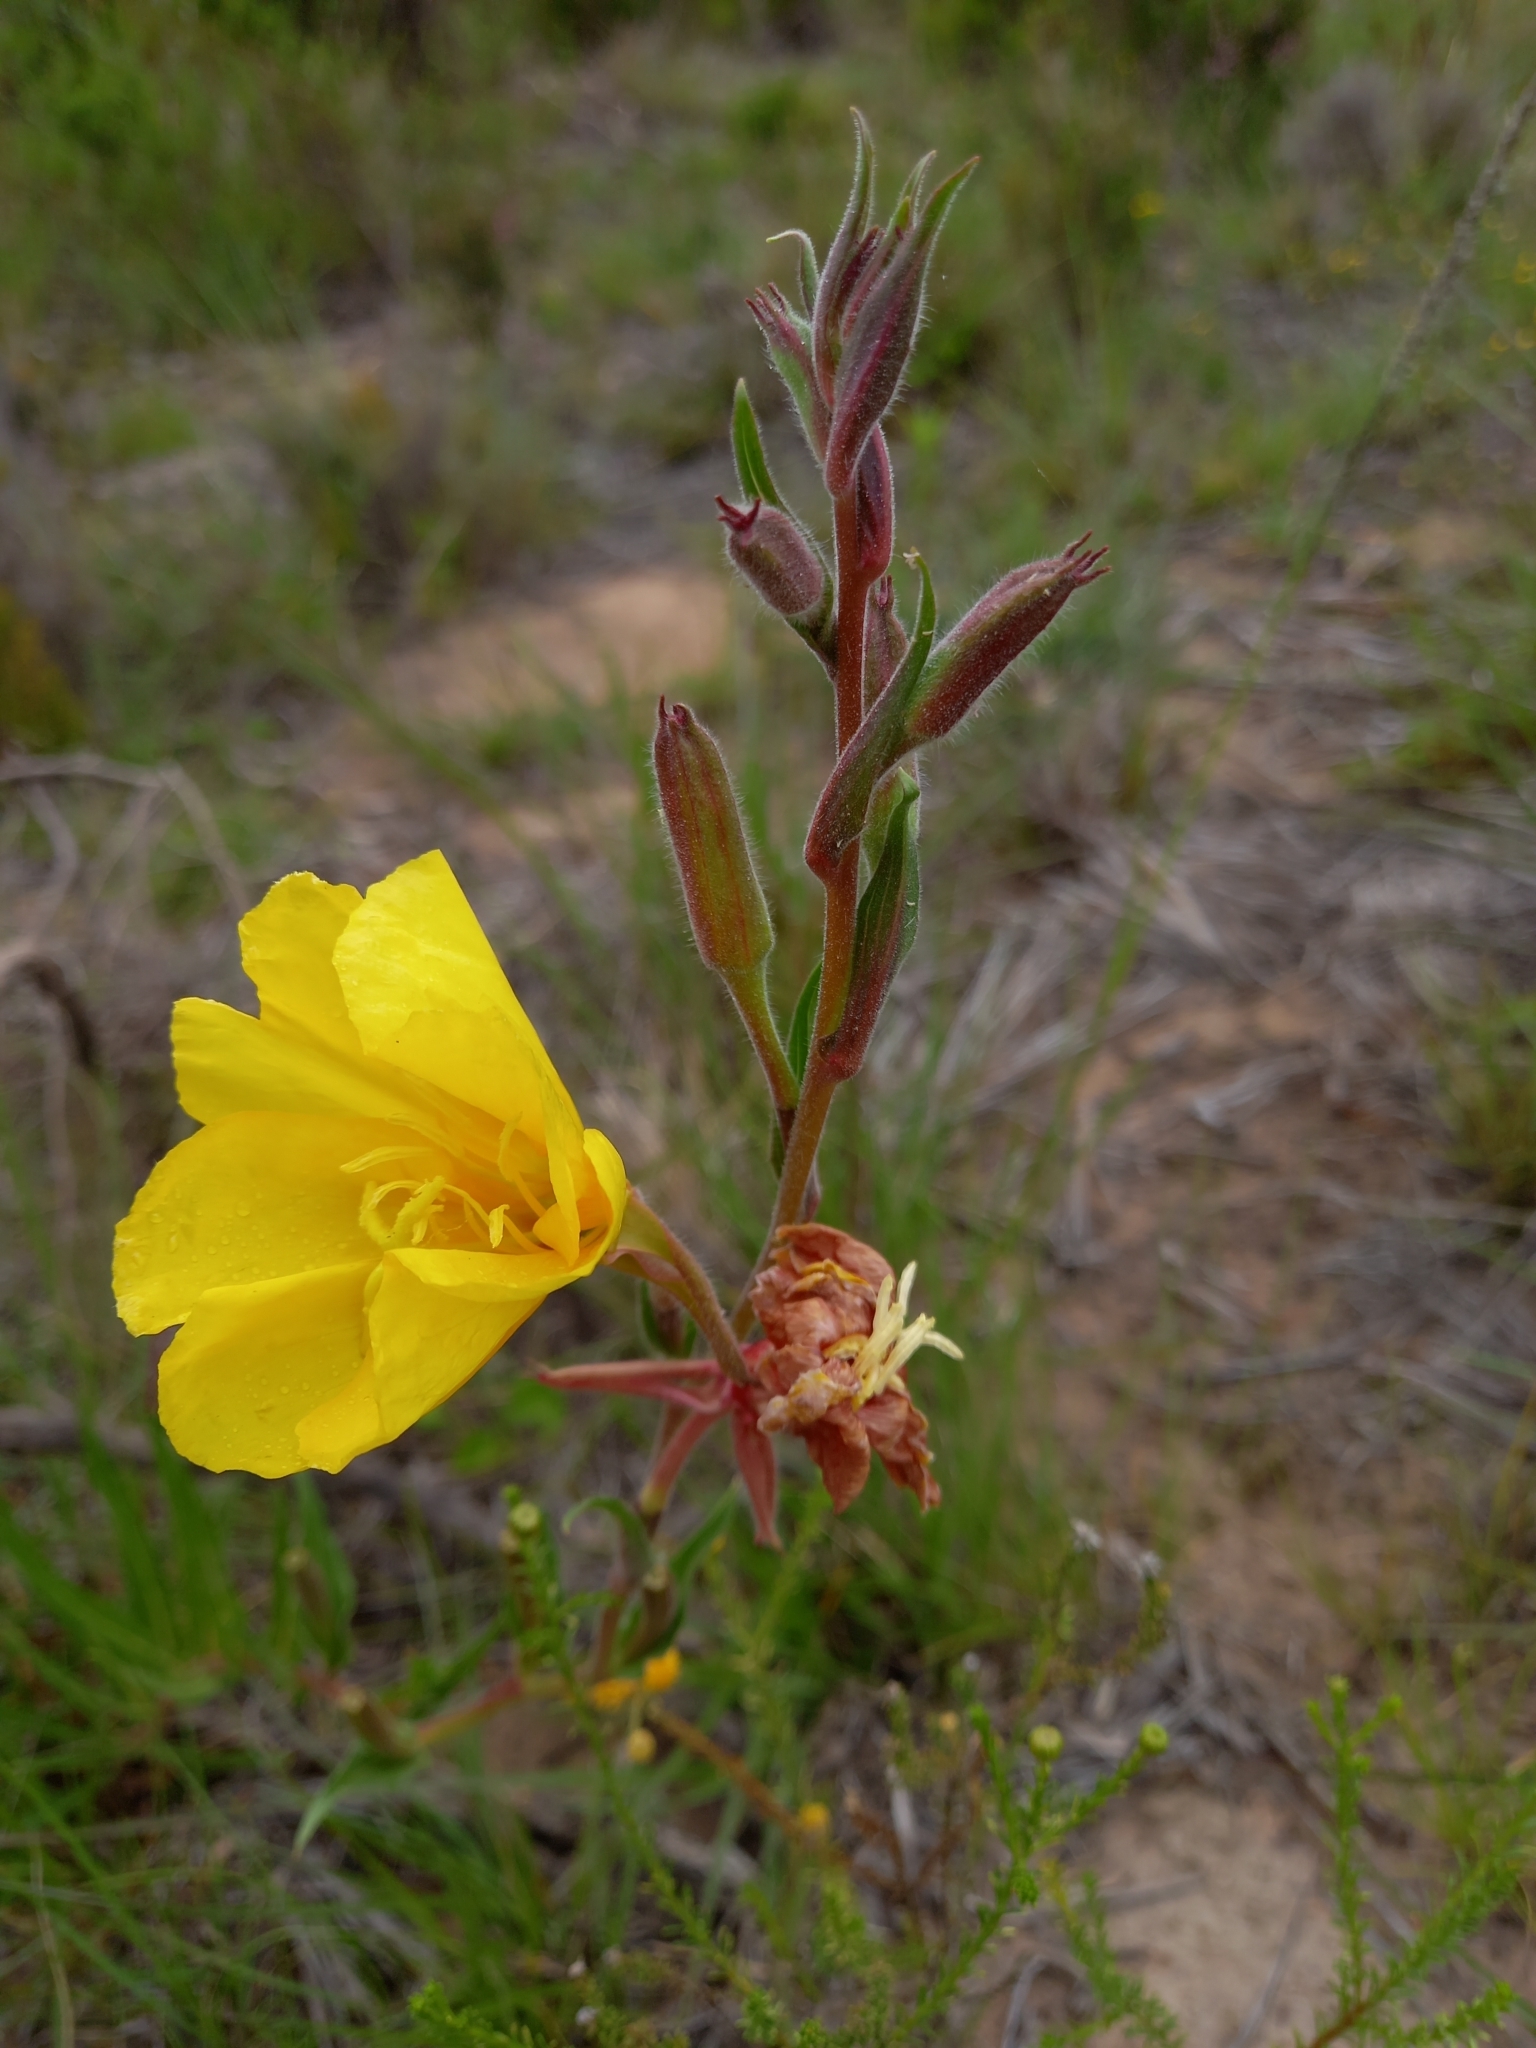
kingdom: Plantae
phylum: Tracheophyta
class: Magnoliopsida
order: Myrtales
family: Onagraceae
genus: Oenothera
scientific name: Oenothera stricta
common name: Fragrant evening-primrose
